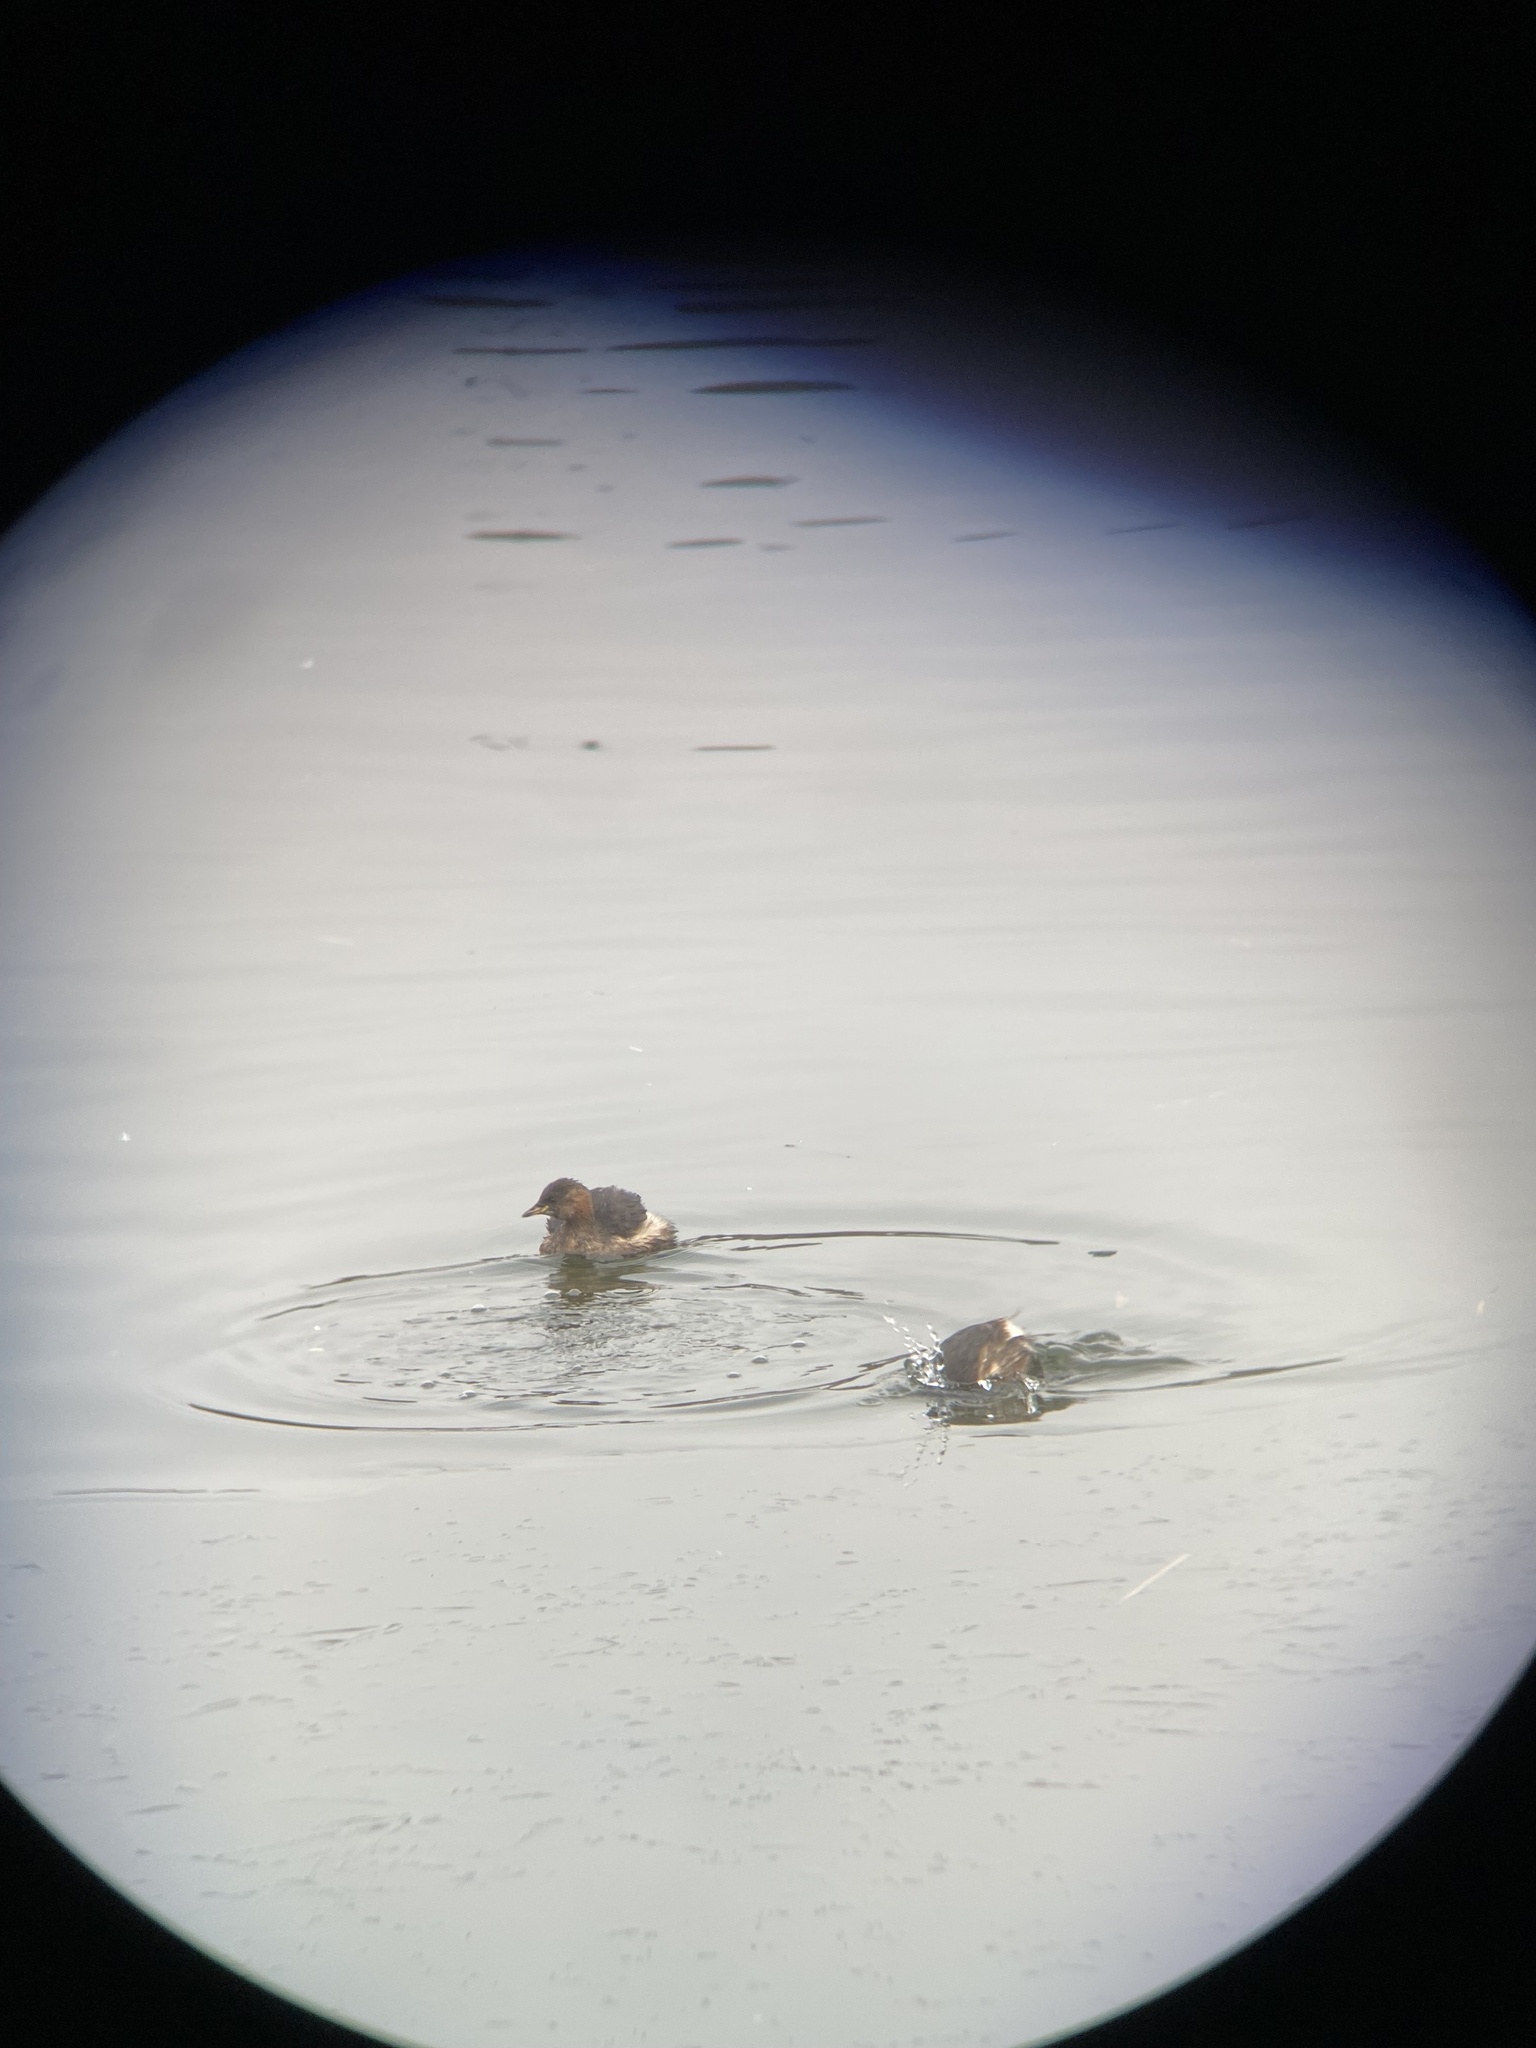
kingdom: Animalia
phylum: Chordata
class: Aves
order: Podicipediformes
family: Podicipedidae
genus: Tachybaptus
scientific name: Tachybaptus ruficollis
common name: Little grebe
